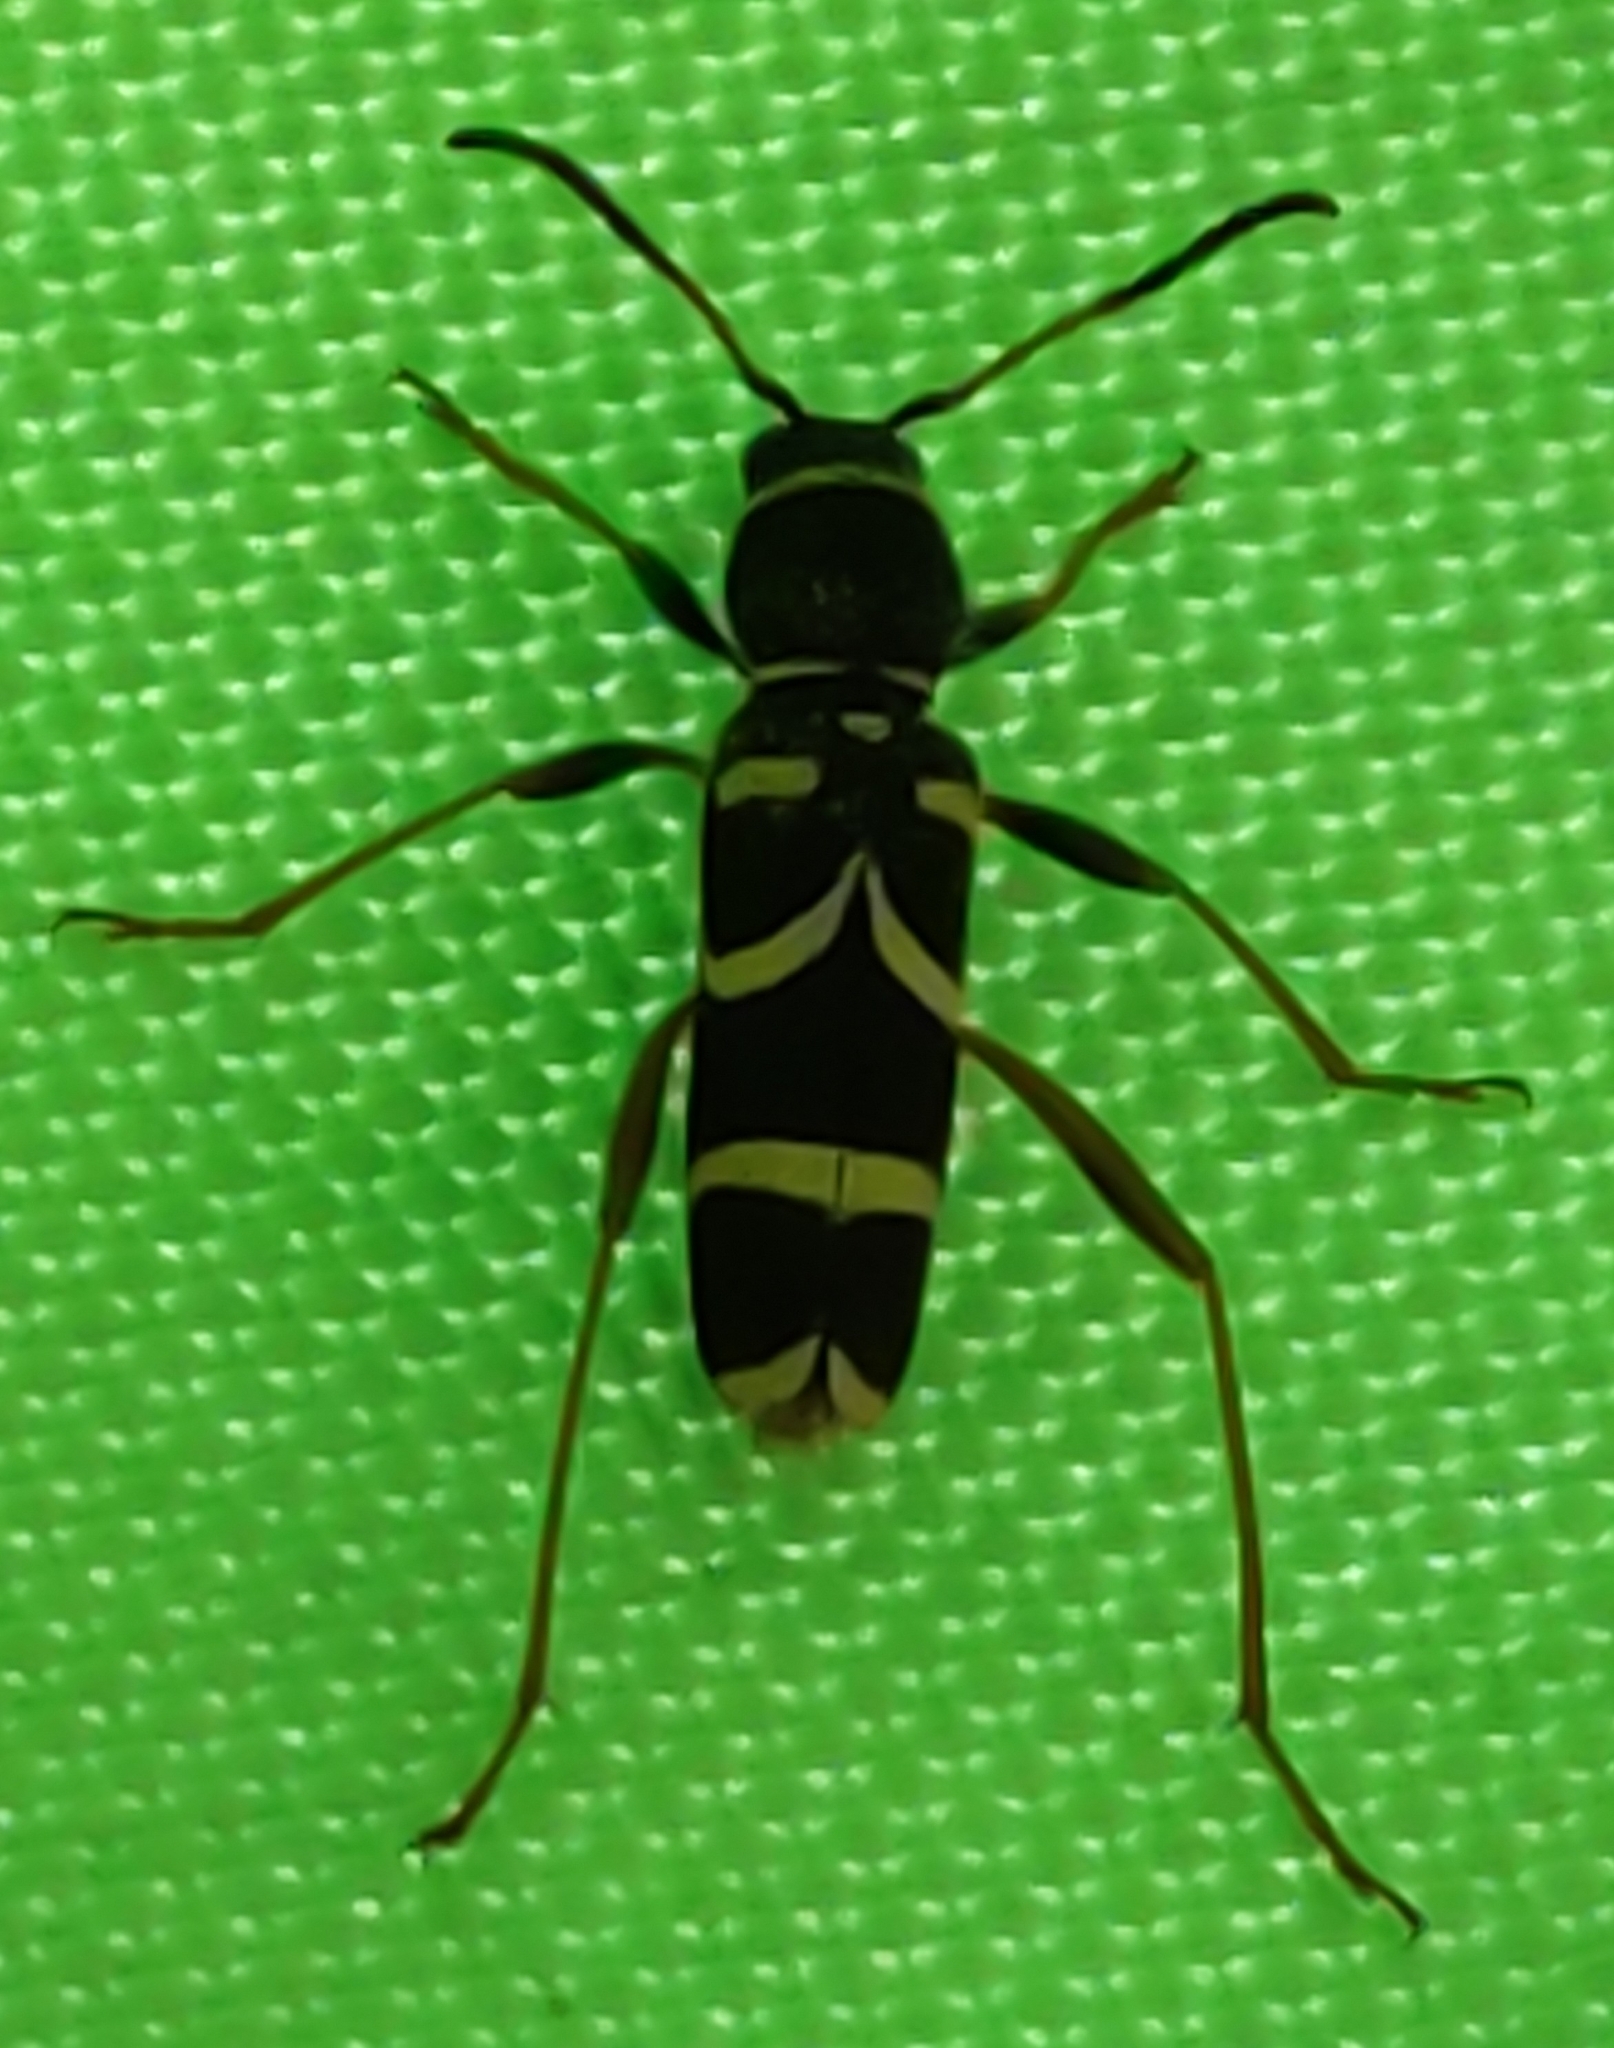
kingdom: Animalia
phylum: Arthropoda
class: Insecta
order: Coleoptera
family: Cerambycidae
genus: Clytus
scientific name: Clytus arietis
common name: Wasp beetle
